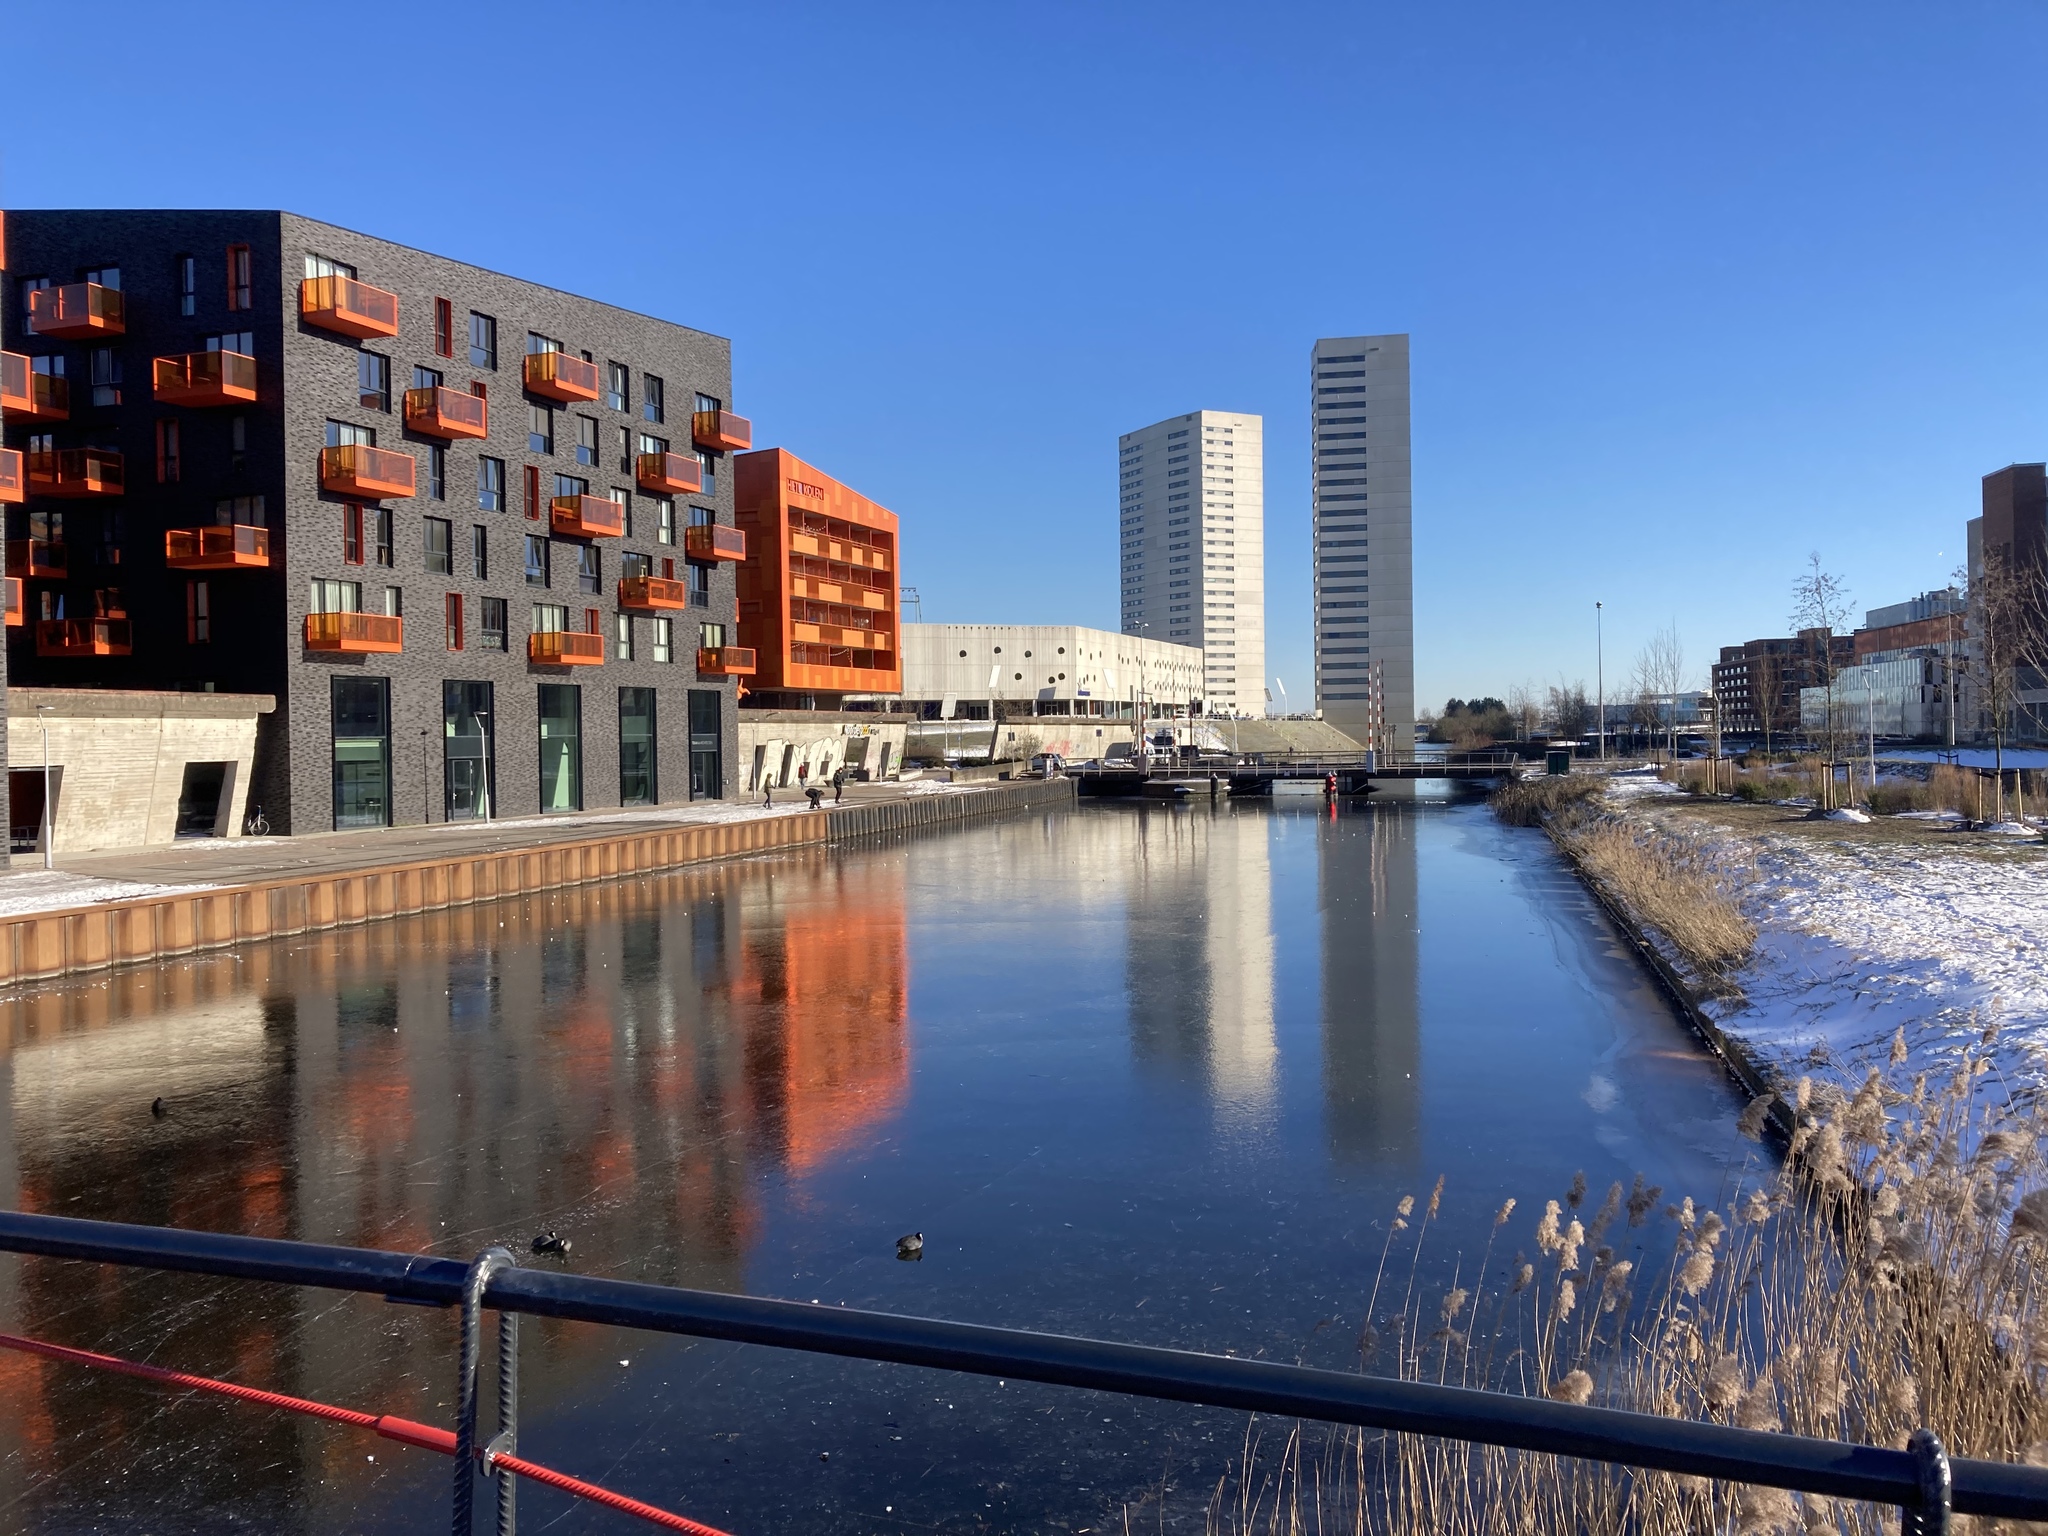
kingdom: Animalia
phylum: Chordata
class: Aves
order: Gruiformes
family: Rallidae
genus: Fulica
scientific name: Fulica atra
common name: Eurasian coot
